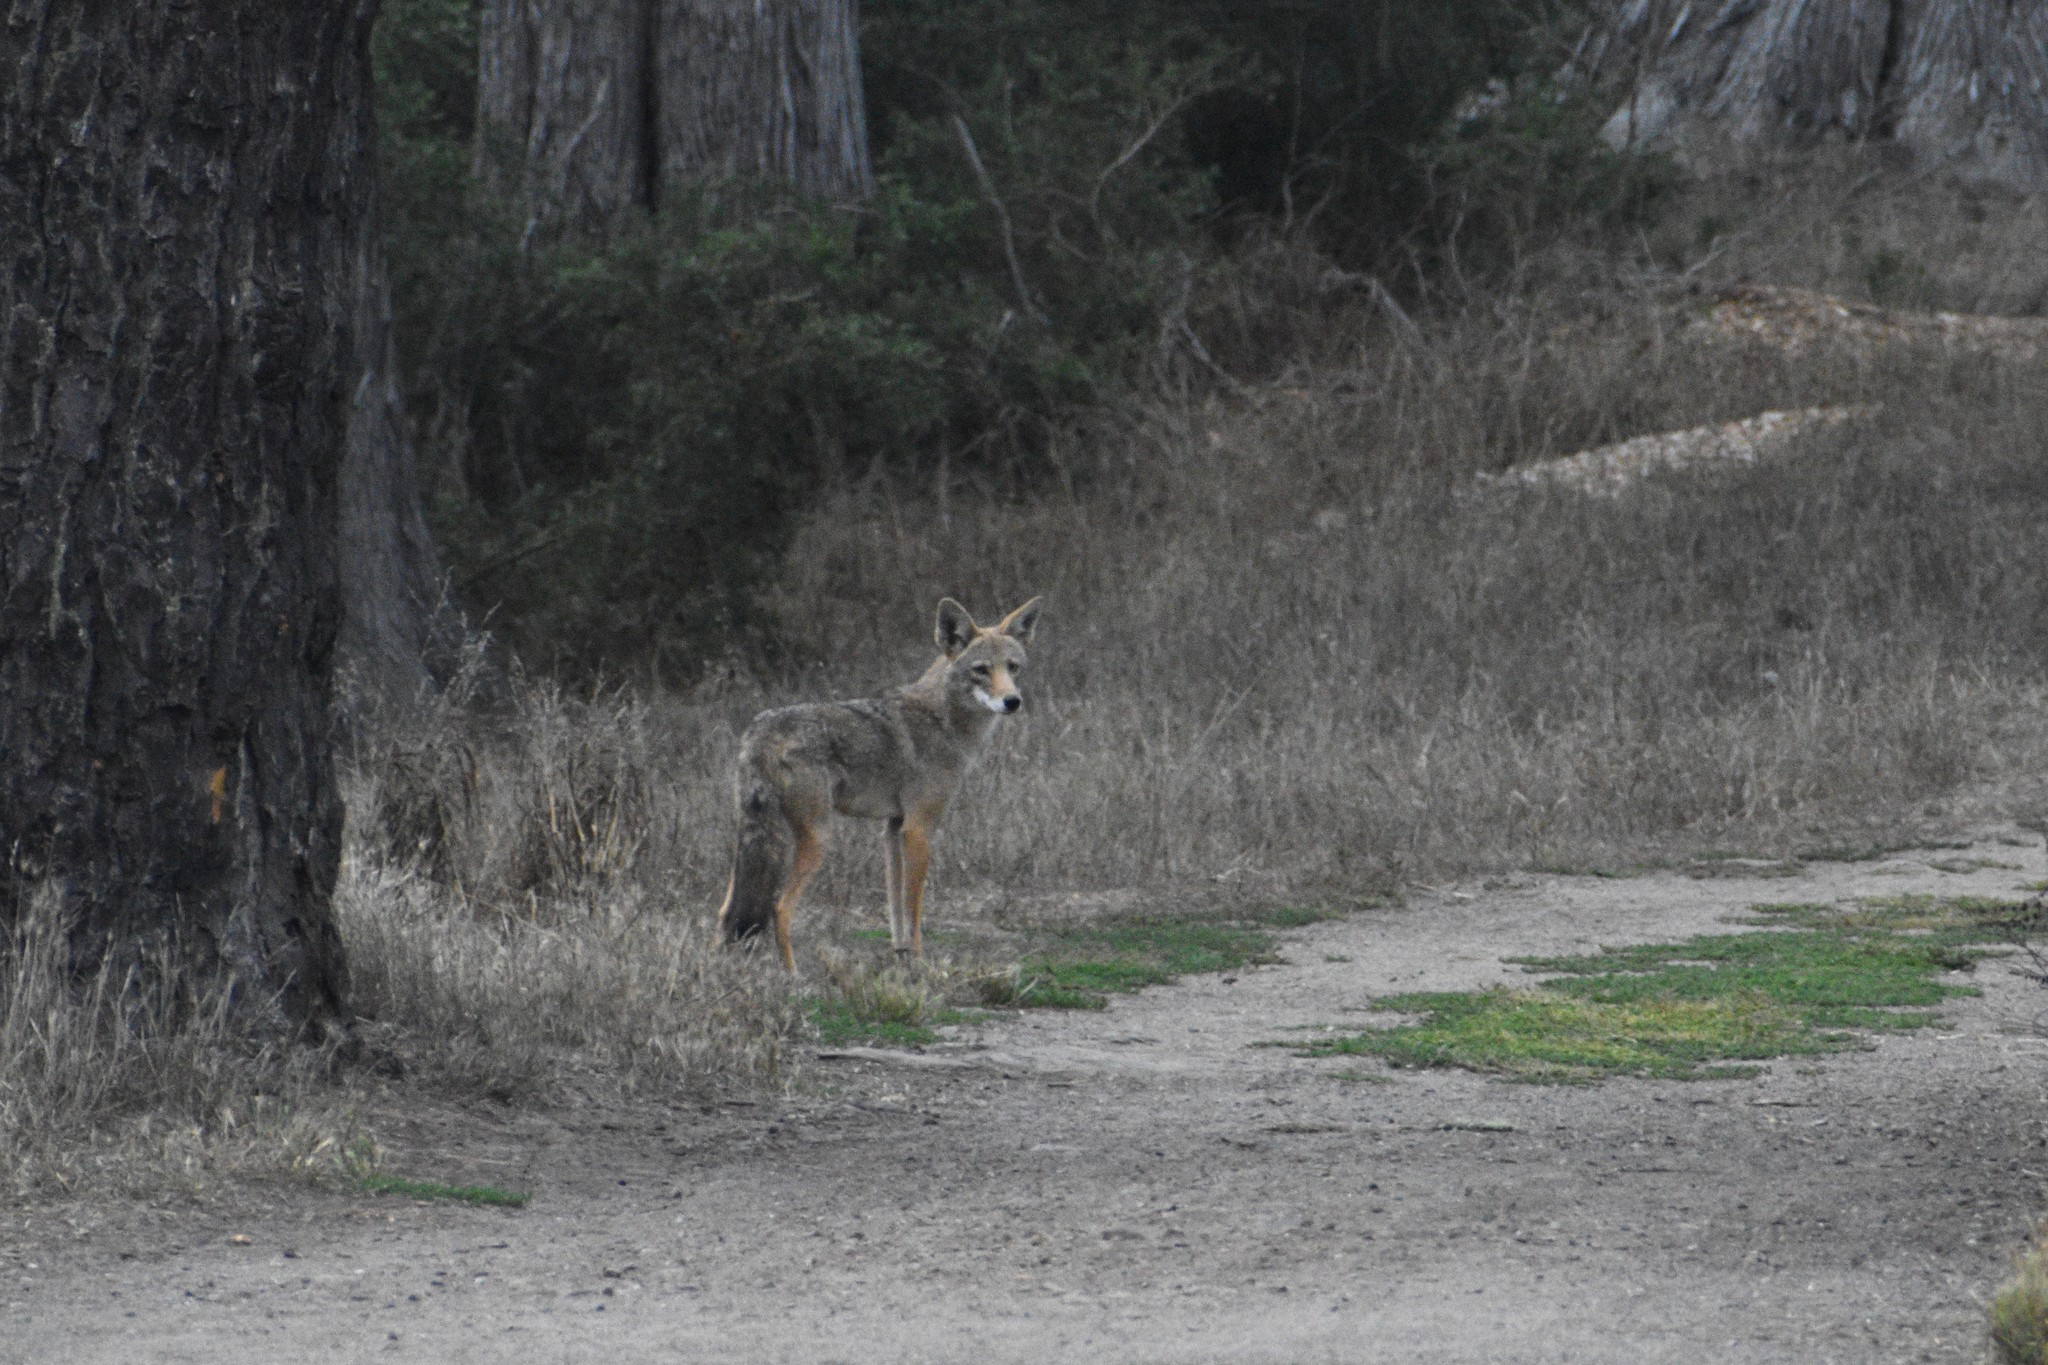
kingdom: Animalia
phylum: Chordata
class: Mammalia
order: Carnivora
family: Canidae
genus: Canis
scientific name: Canis latrans
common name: Coyote
